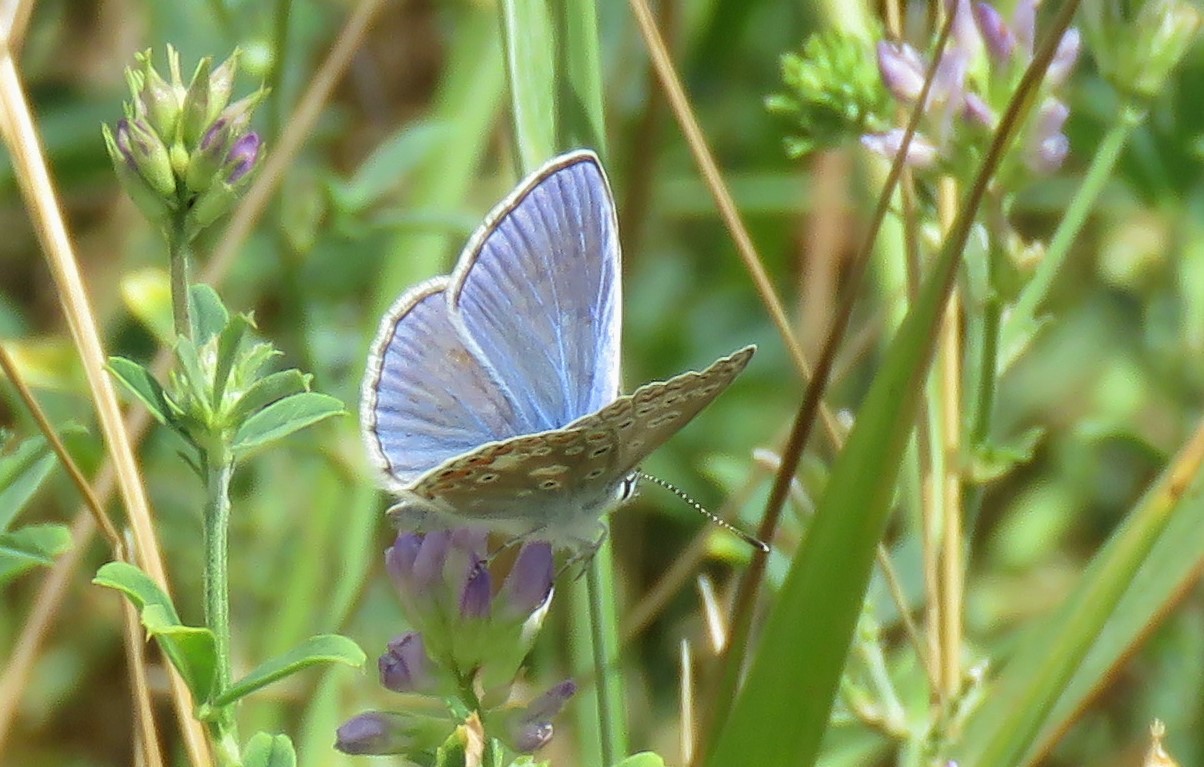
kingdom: Animalia
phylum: Arthropoda
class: Insecta
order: Lepidoptera
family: Lycaenidae
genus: Polyommatus
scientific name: Polyommatus icarus
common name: Common blue
